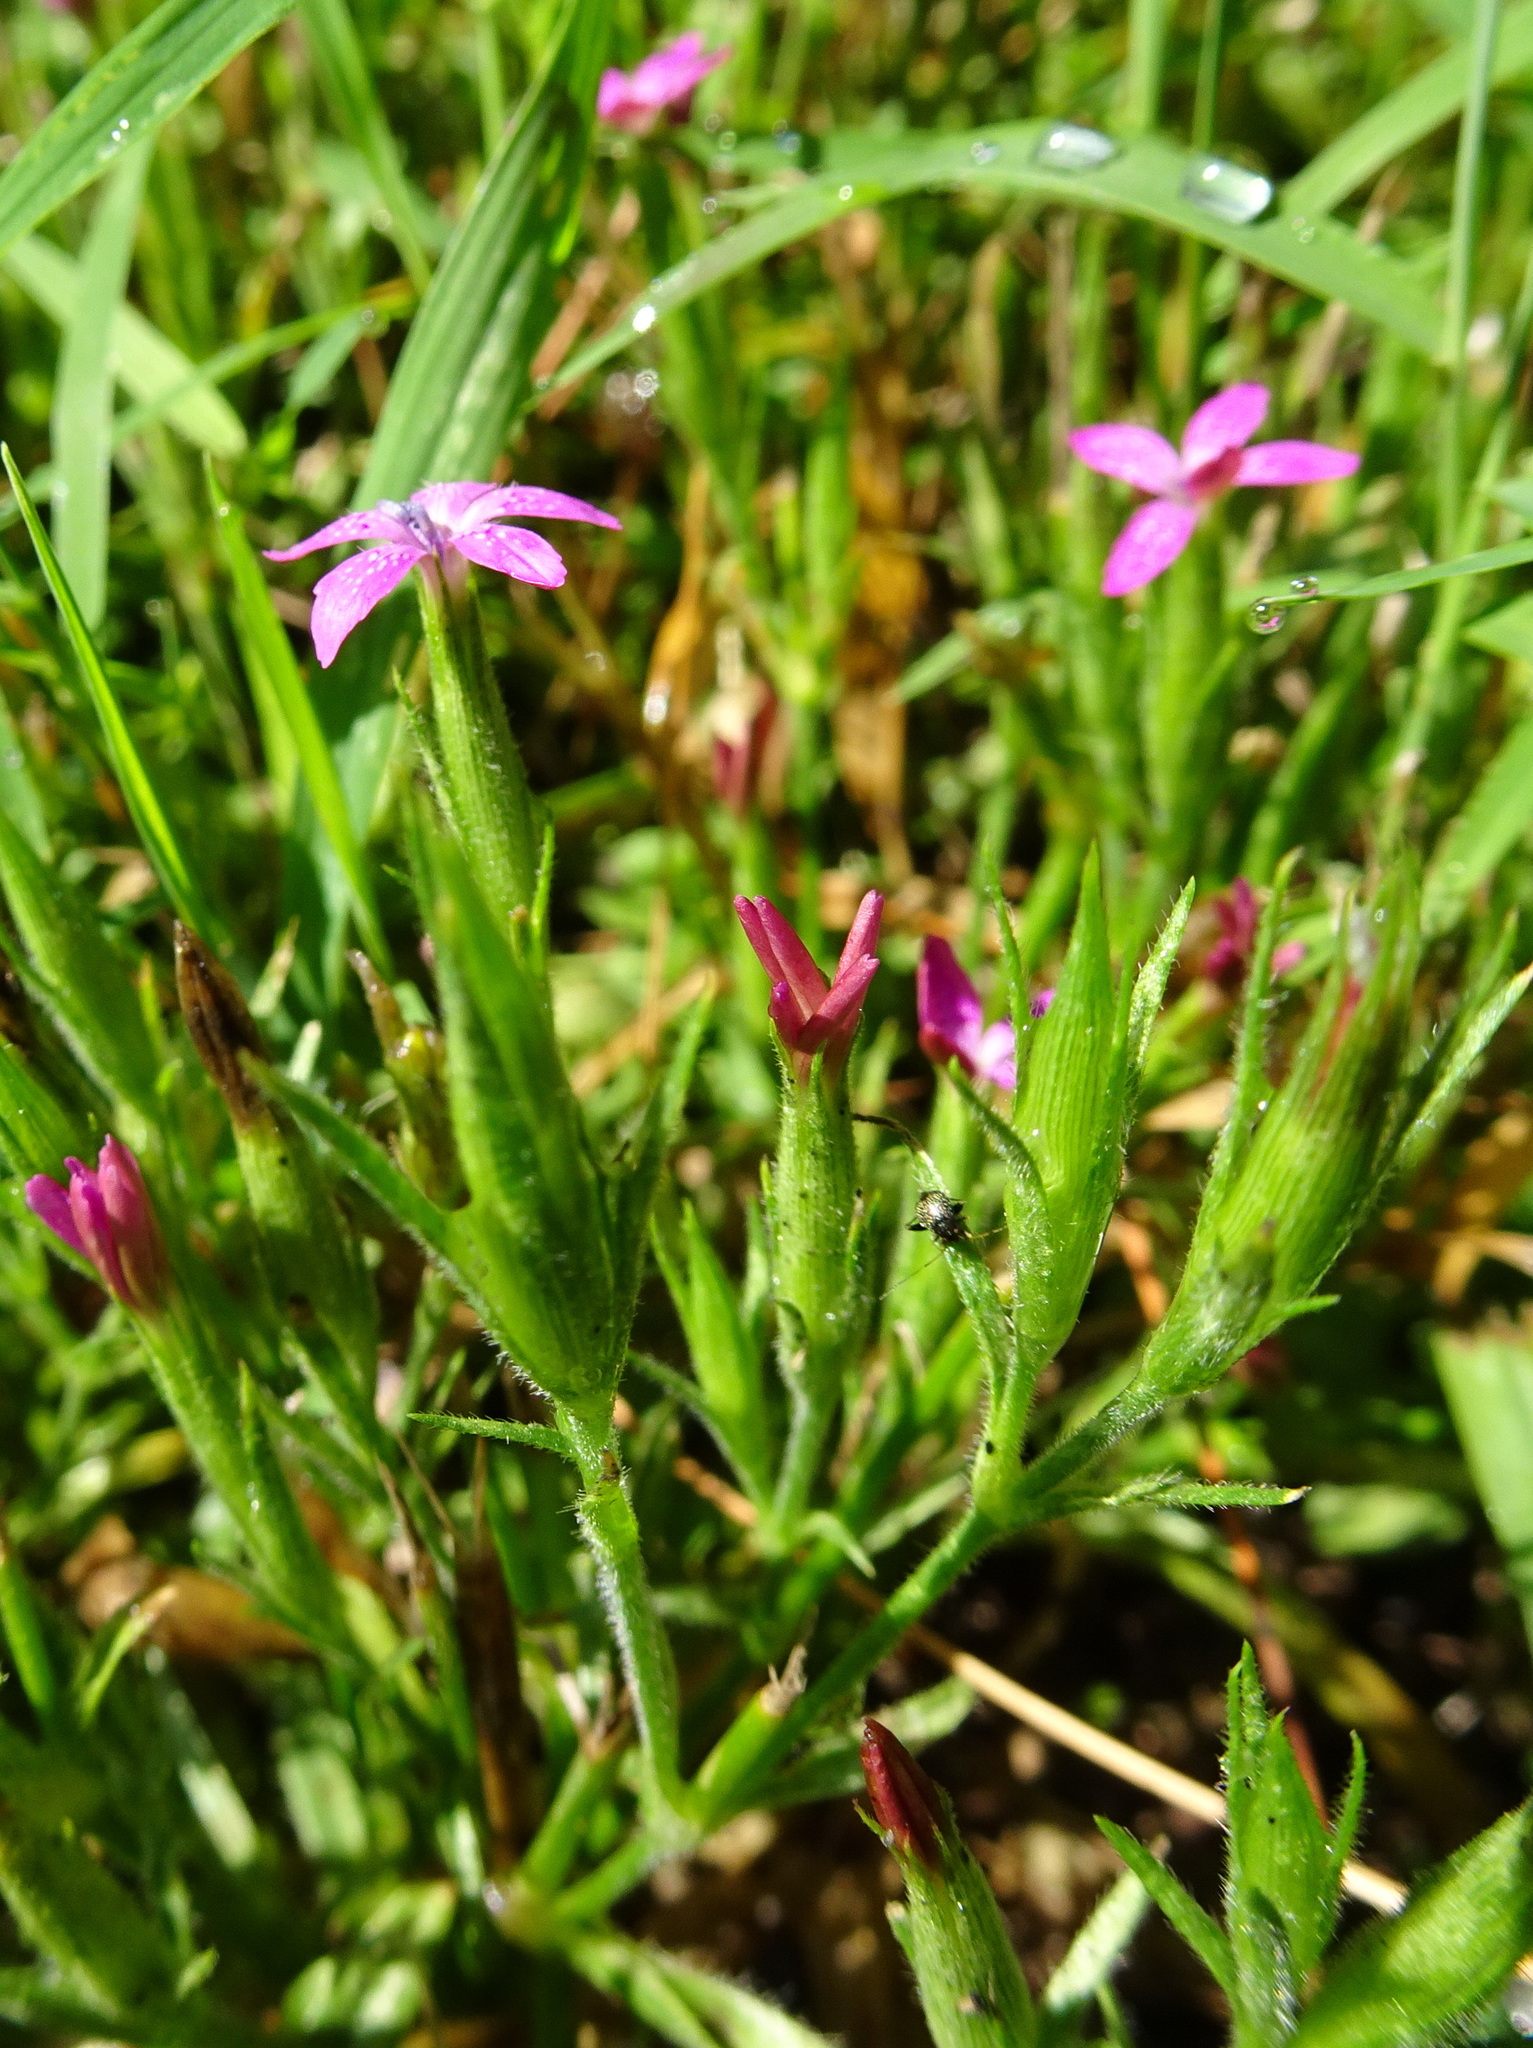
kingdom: Plantae
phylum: Tracheophyta
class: Magnoliopsida
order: Caryophyllales
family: Caryophyllaceae
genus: Dianthus
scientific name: Dianthus armeria
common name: Deptford pink
